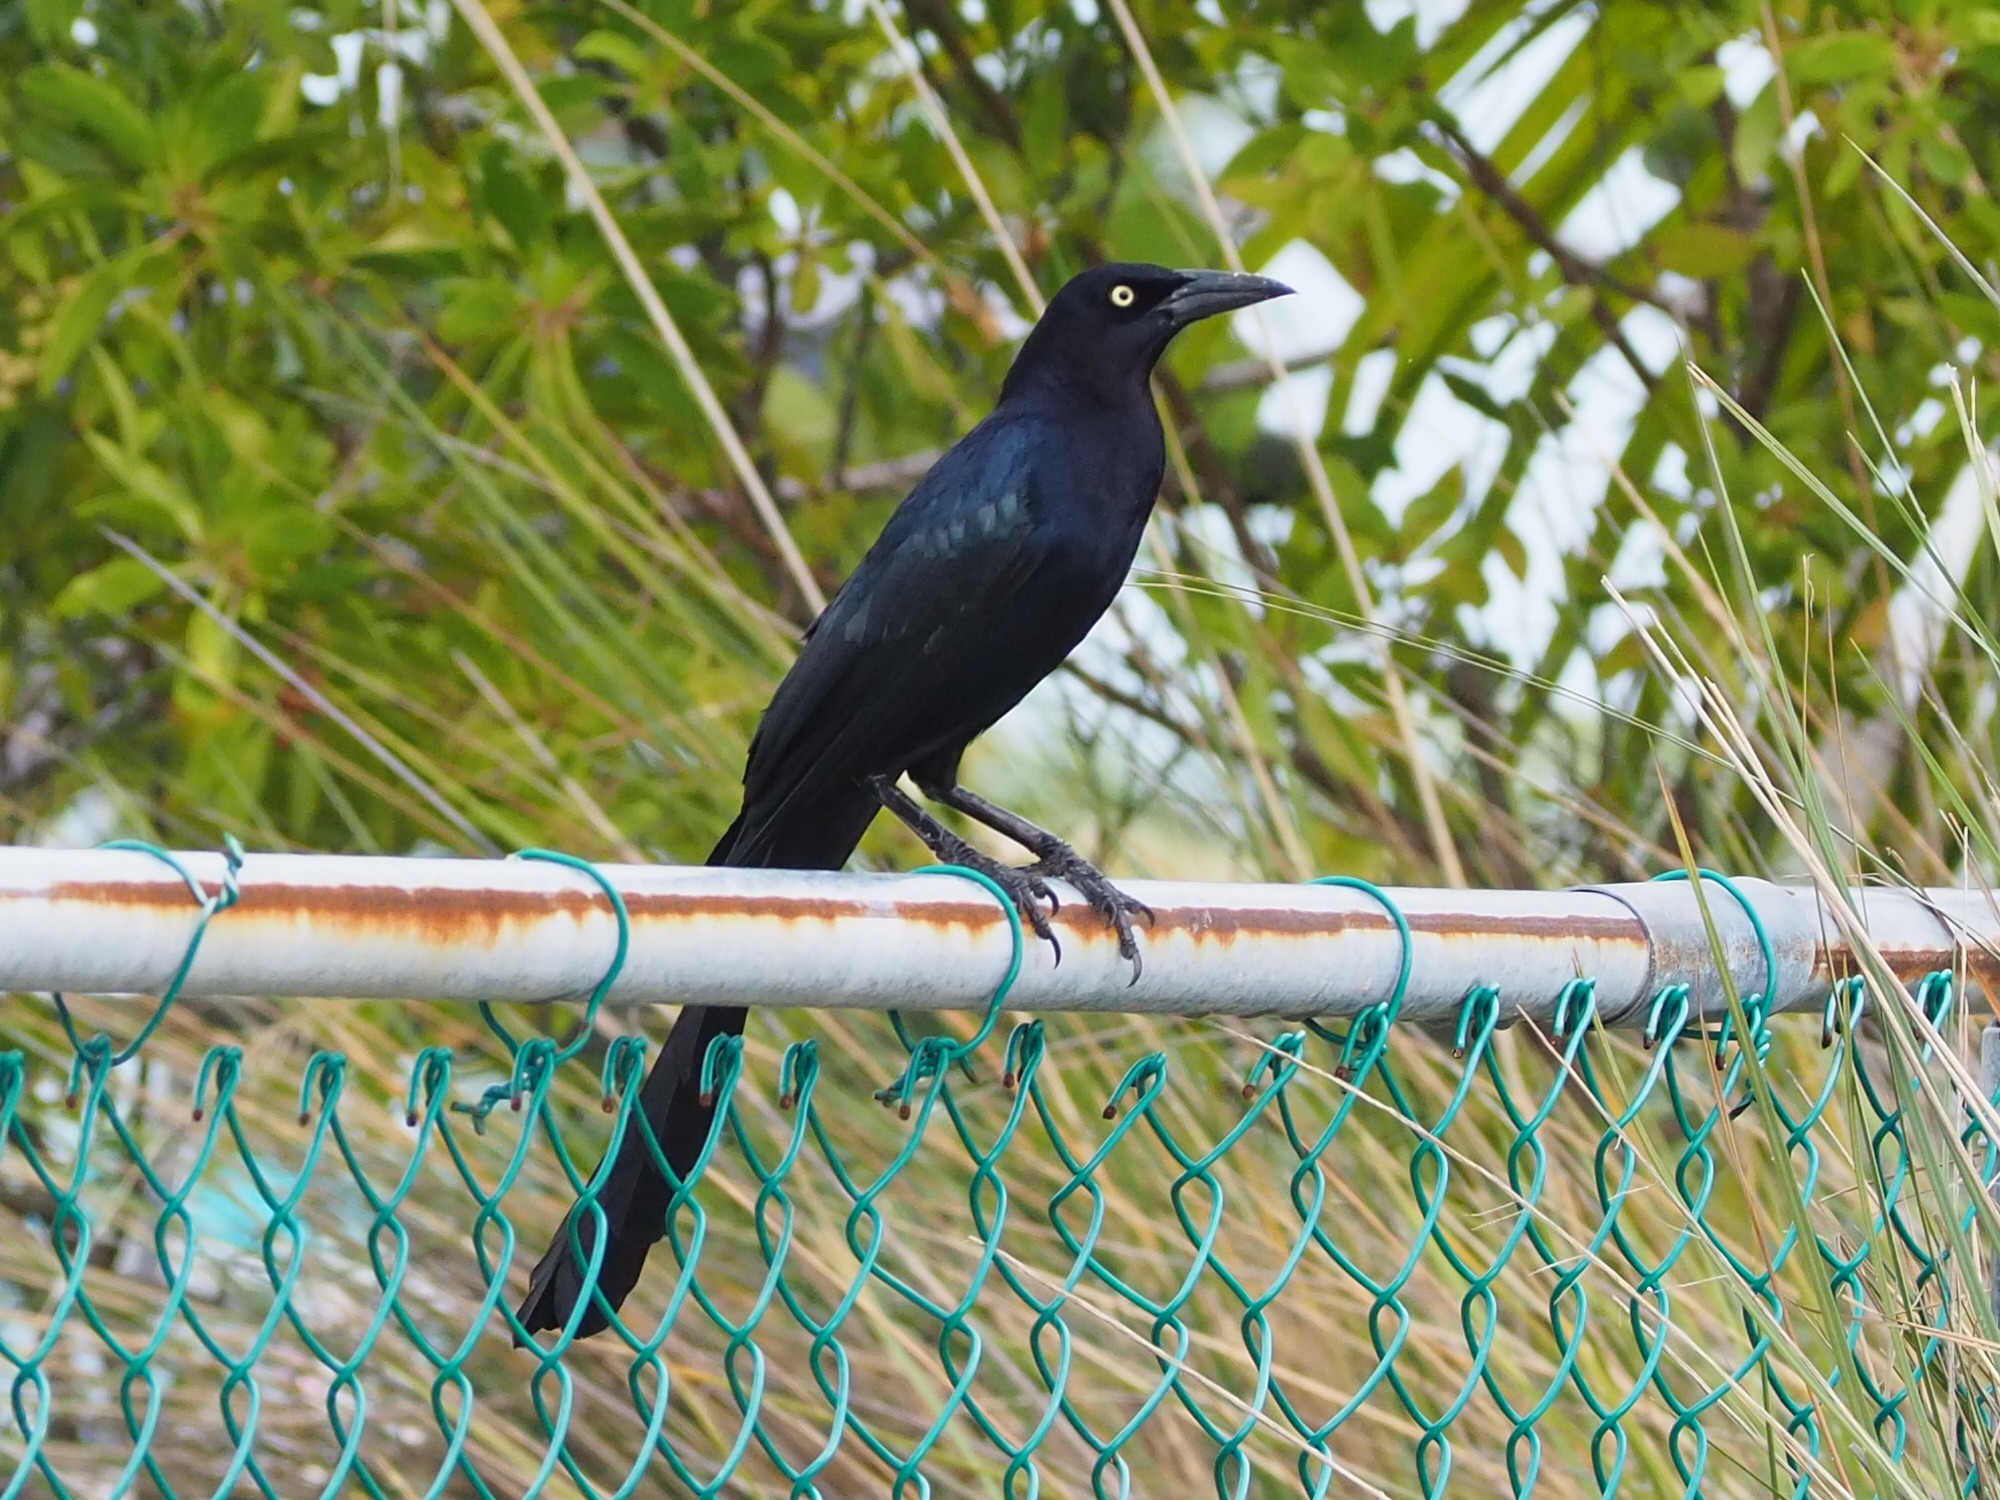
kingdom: Animalia
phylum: Chordata
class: Aves
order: Passeriformes
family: Icteridae
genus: Quiscalus
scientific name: Quiscalus mexicanus
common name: Great-tailed grackle
